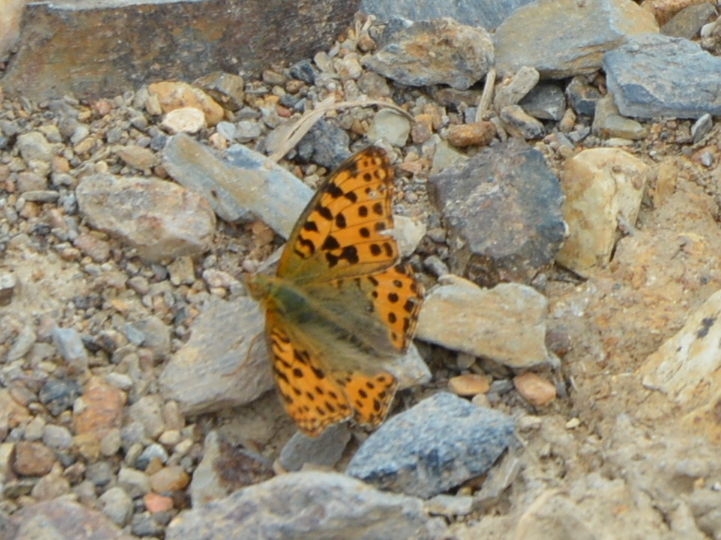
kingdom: Animalia
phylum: Arthropoda
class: Insecta
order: Lepidoptera
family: Nymphalidae
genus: Issoria
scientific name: Issoria lathonia
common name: Queen of spain fritillary
